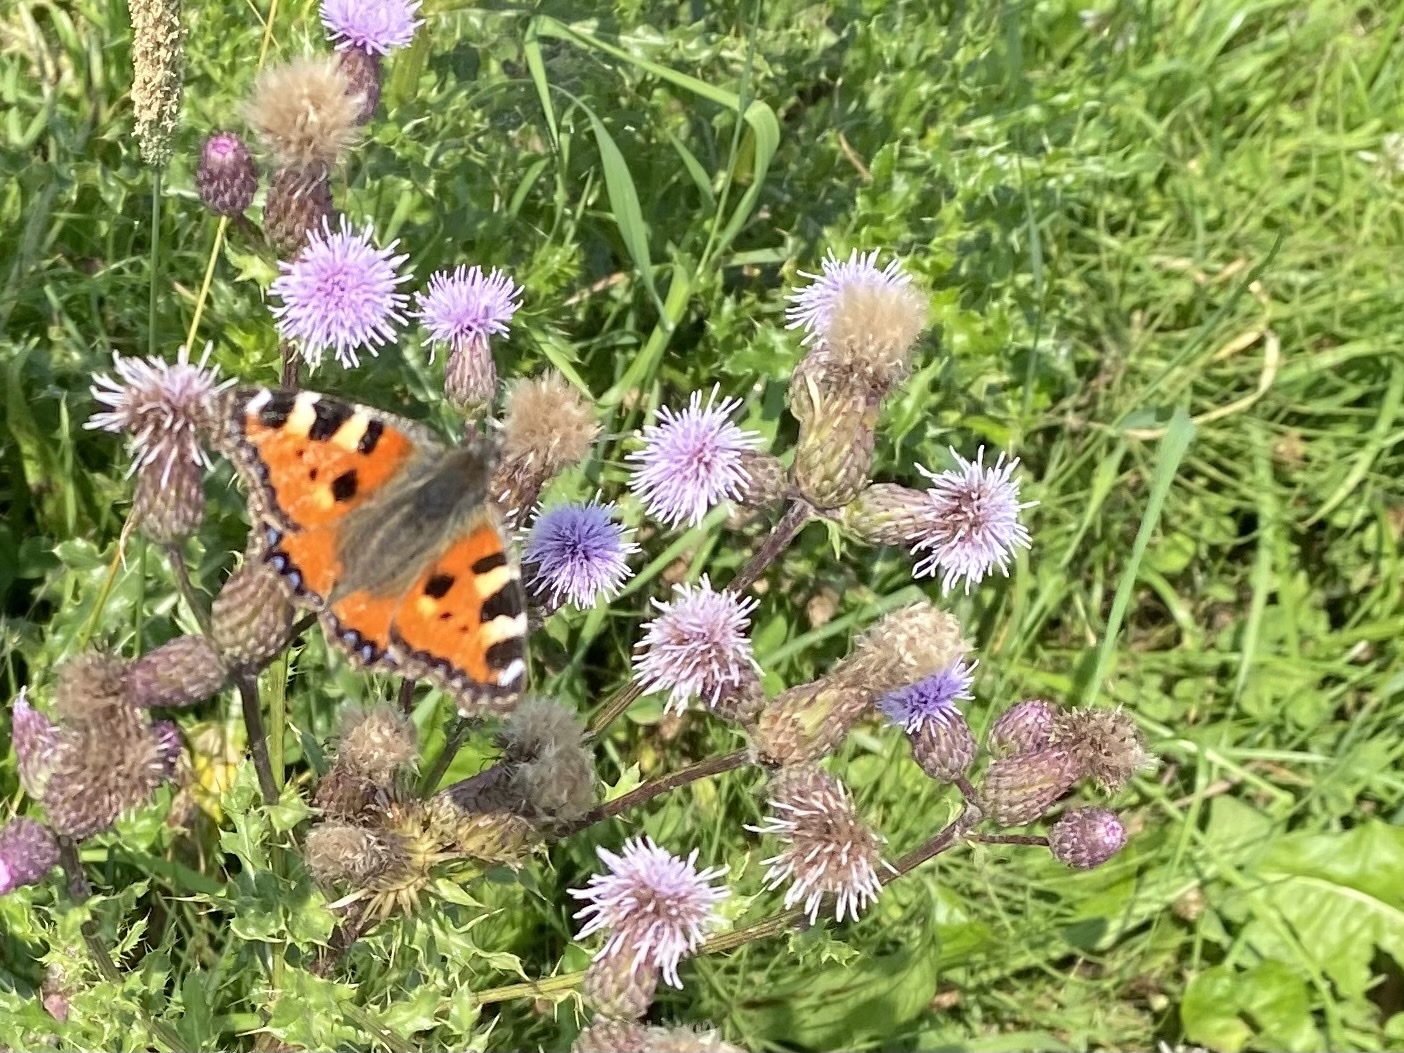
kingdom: Animalia
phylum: Arthropoda
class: Insecta
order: Lepidoptera
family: Nymphalidae
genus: Aglais
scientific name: Aglais urticae
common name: Small tortoiseshell
